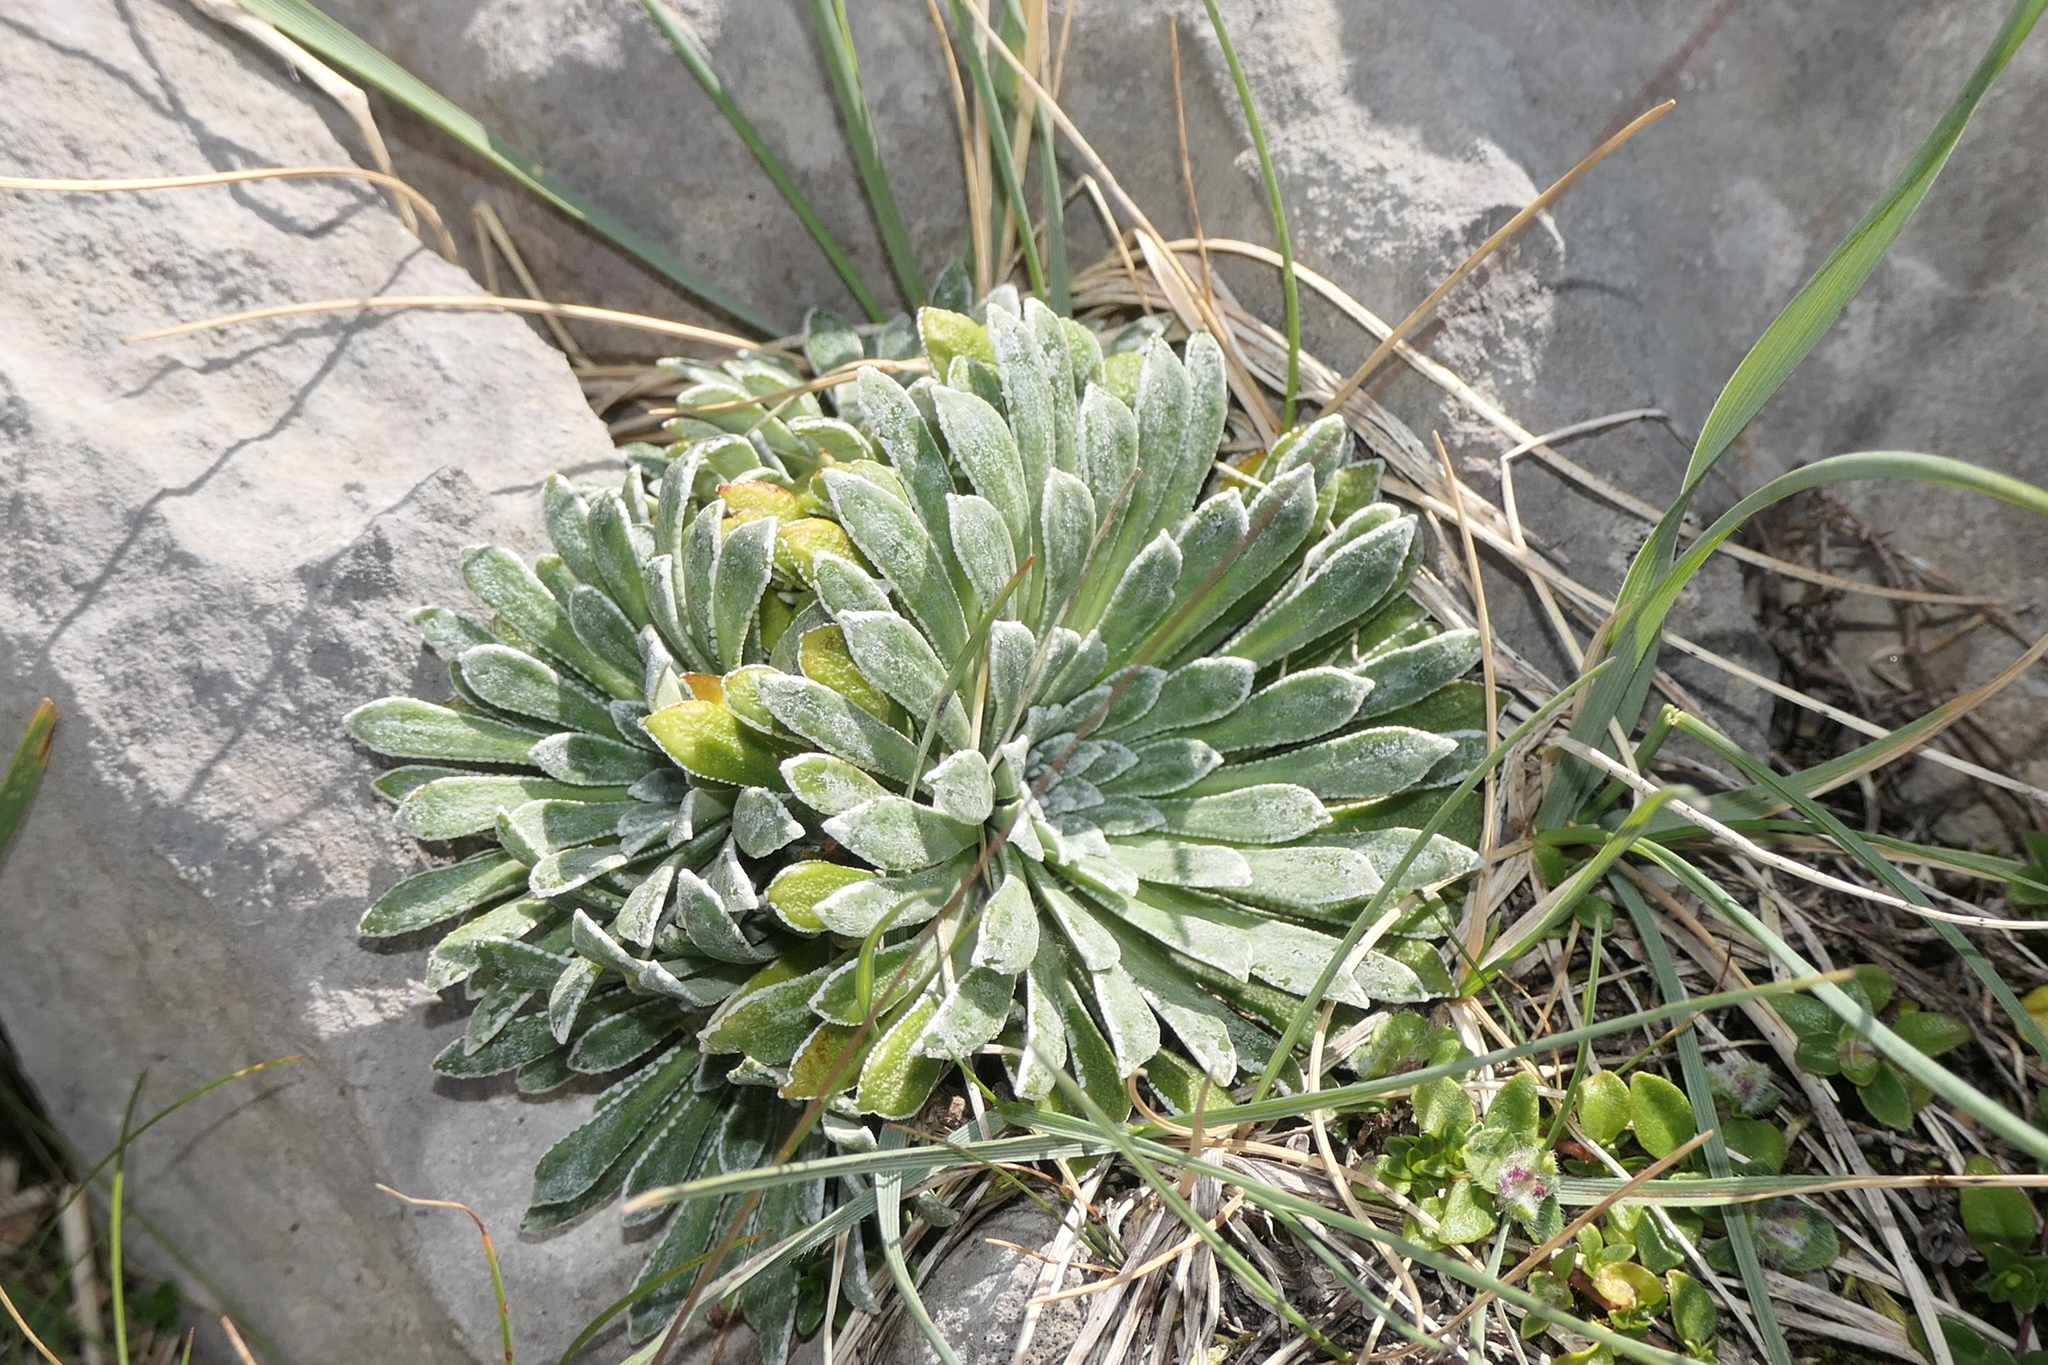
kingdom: Plantae
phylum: Tracheophyta
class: Magnoliopsida
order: Saxifragales
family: Saxifragaceae
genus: Saxifraga
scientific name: Saxifraga longifolia
